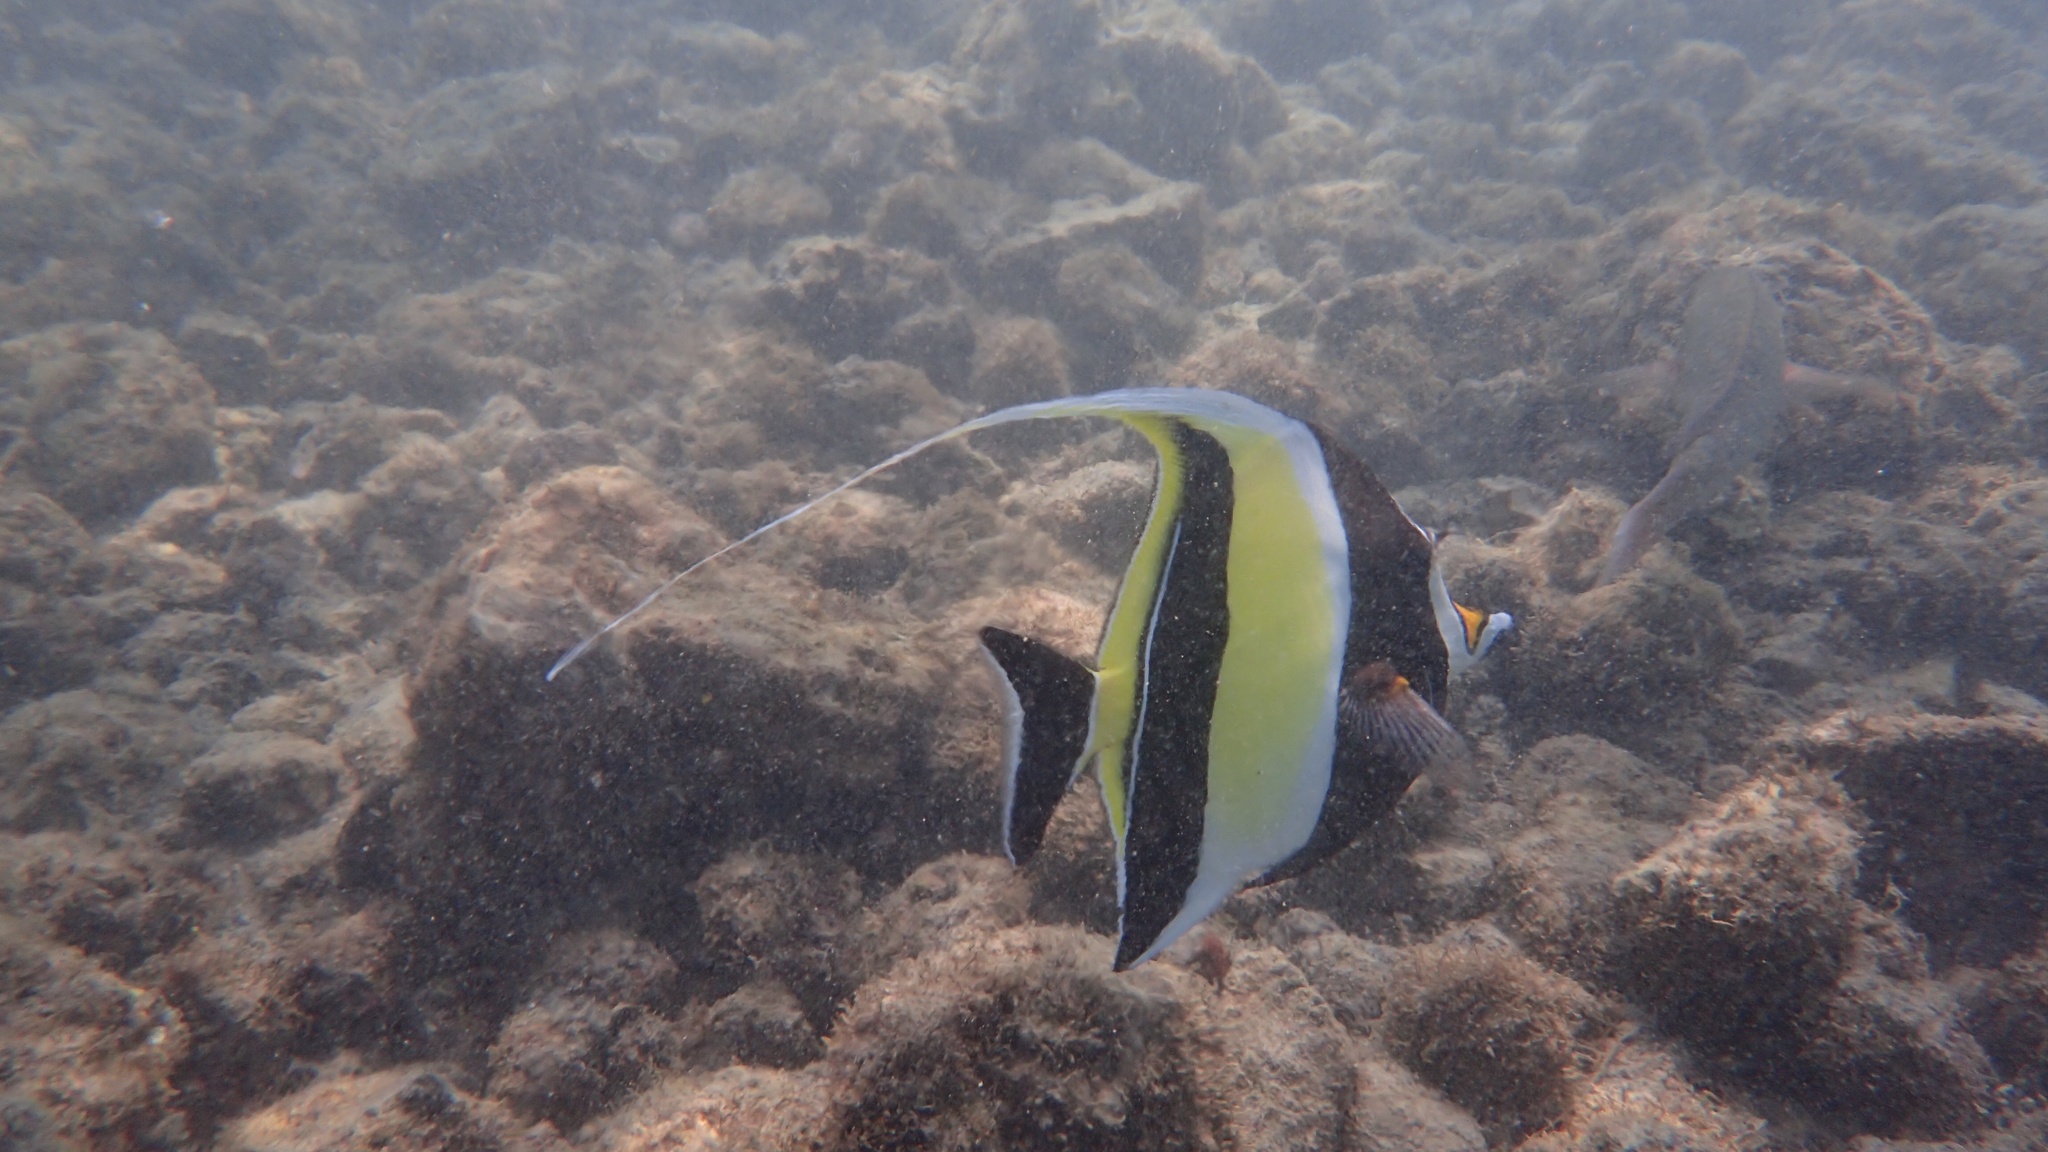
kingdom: Animalia
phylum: Chordata
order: Perciformes
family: Zanclidae
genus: Zanclus
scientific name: Zanclus cornutus
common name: Moorish idol
